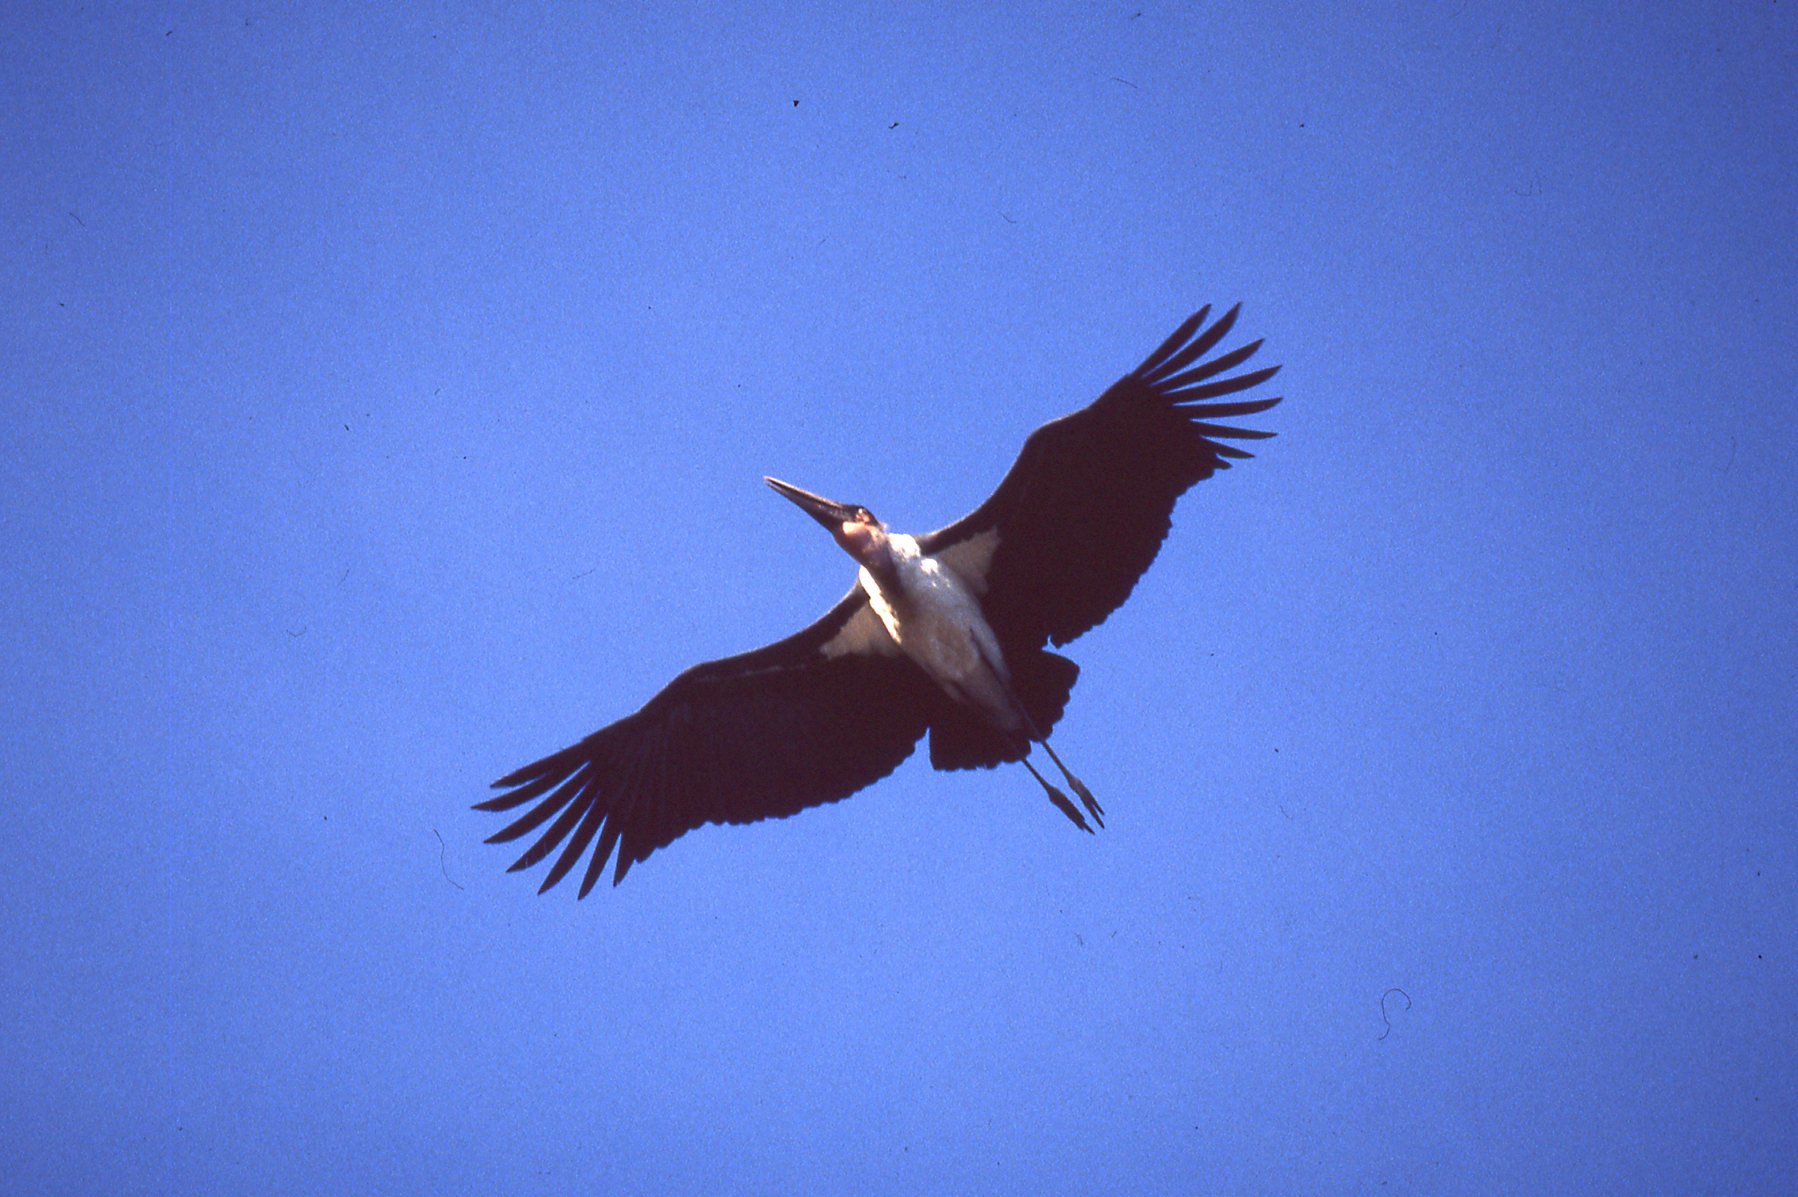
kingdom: Animalia
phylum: Chordata
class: Aves
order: Ciconiiformes
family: Ciconiidae
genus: Leptoptilos
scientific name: Leptoptilos crumenifer
